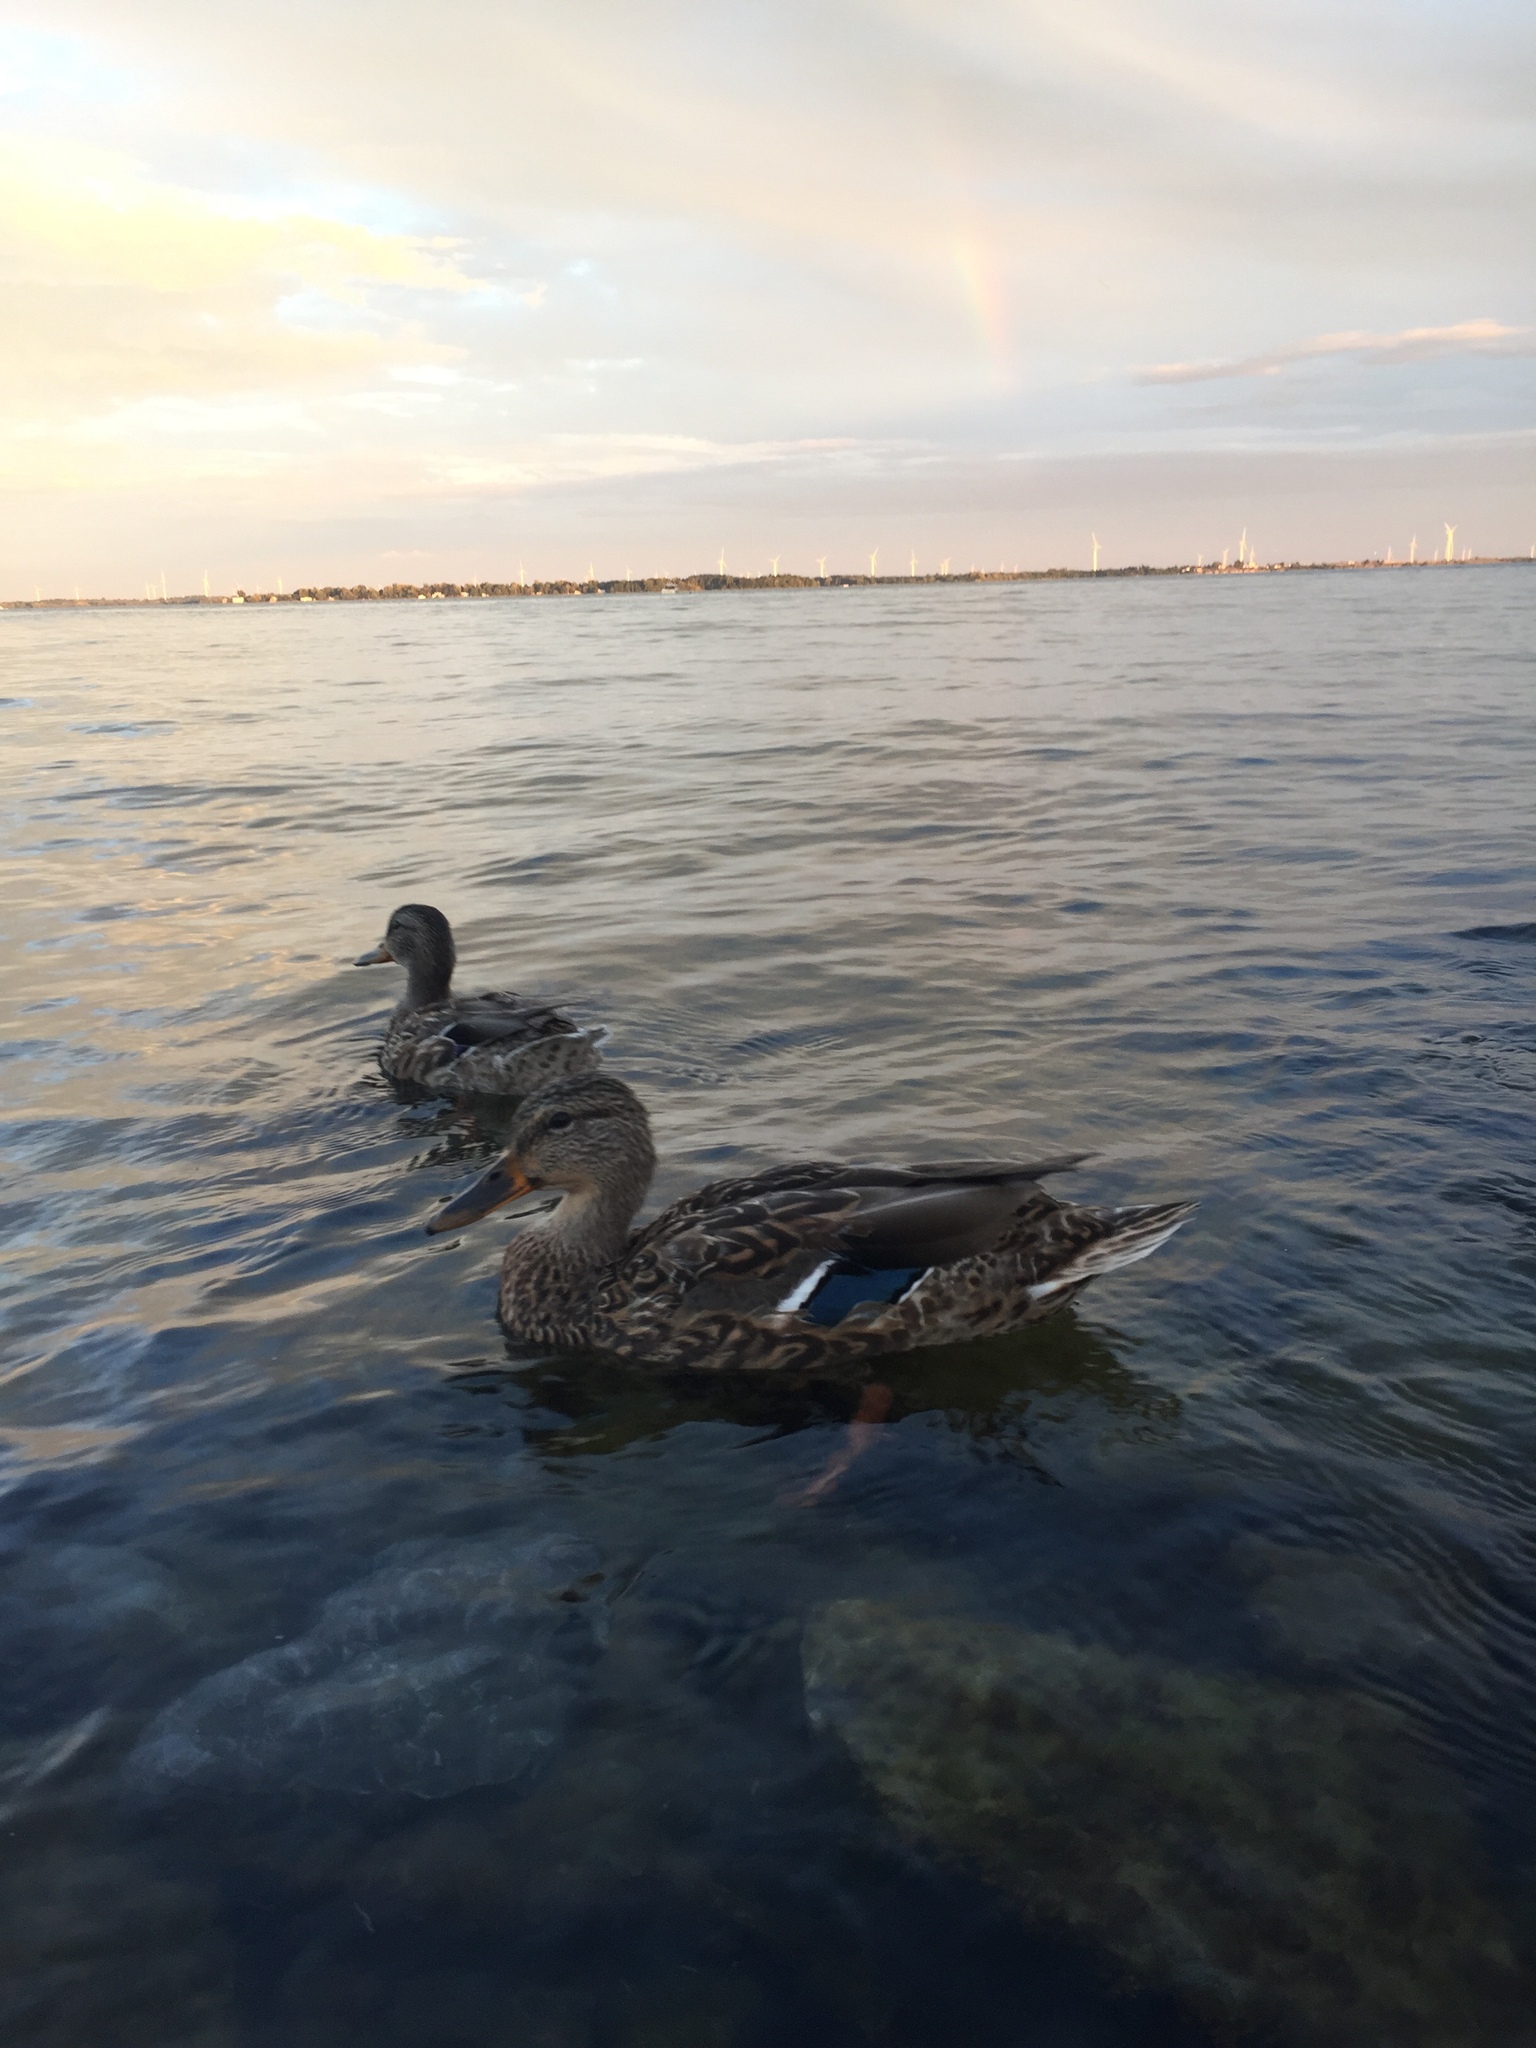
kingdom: Animalia
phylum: Chordata
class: Aves
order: Anseriformes
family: Anatidae
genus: Anas
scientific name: Anas platyrhynchos
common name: Mallard
